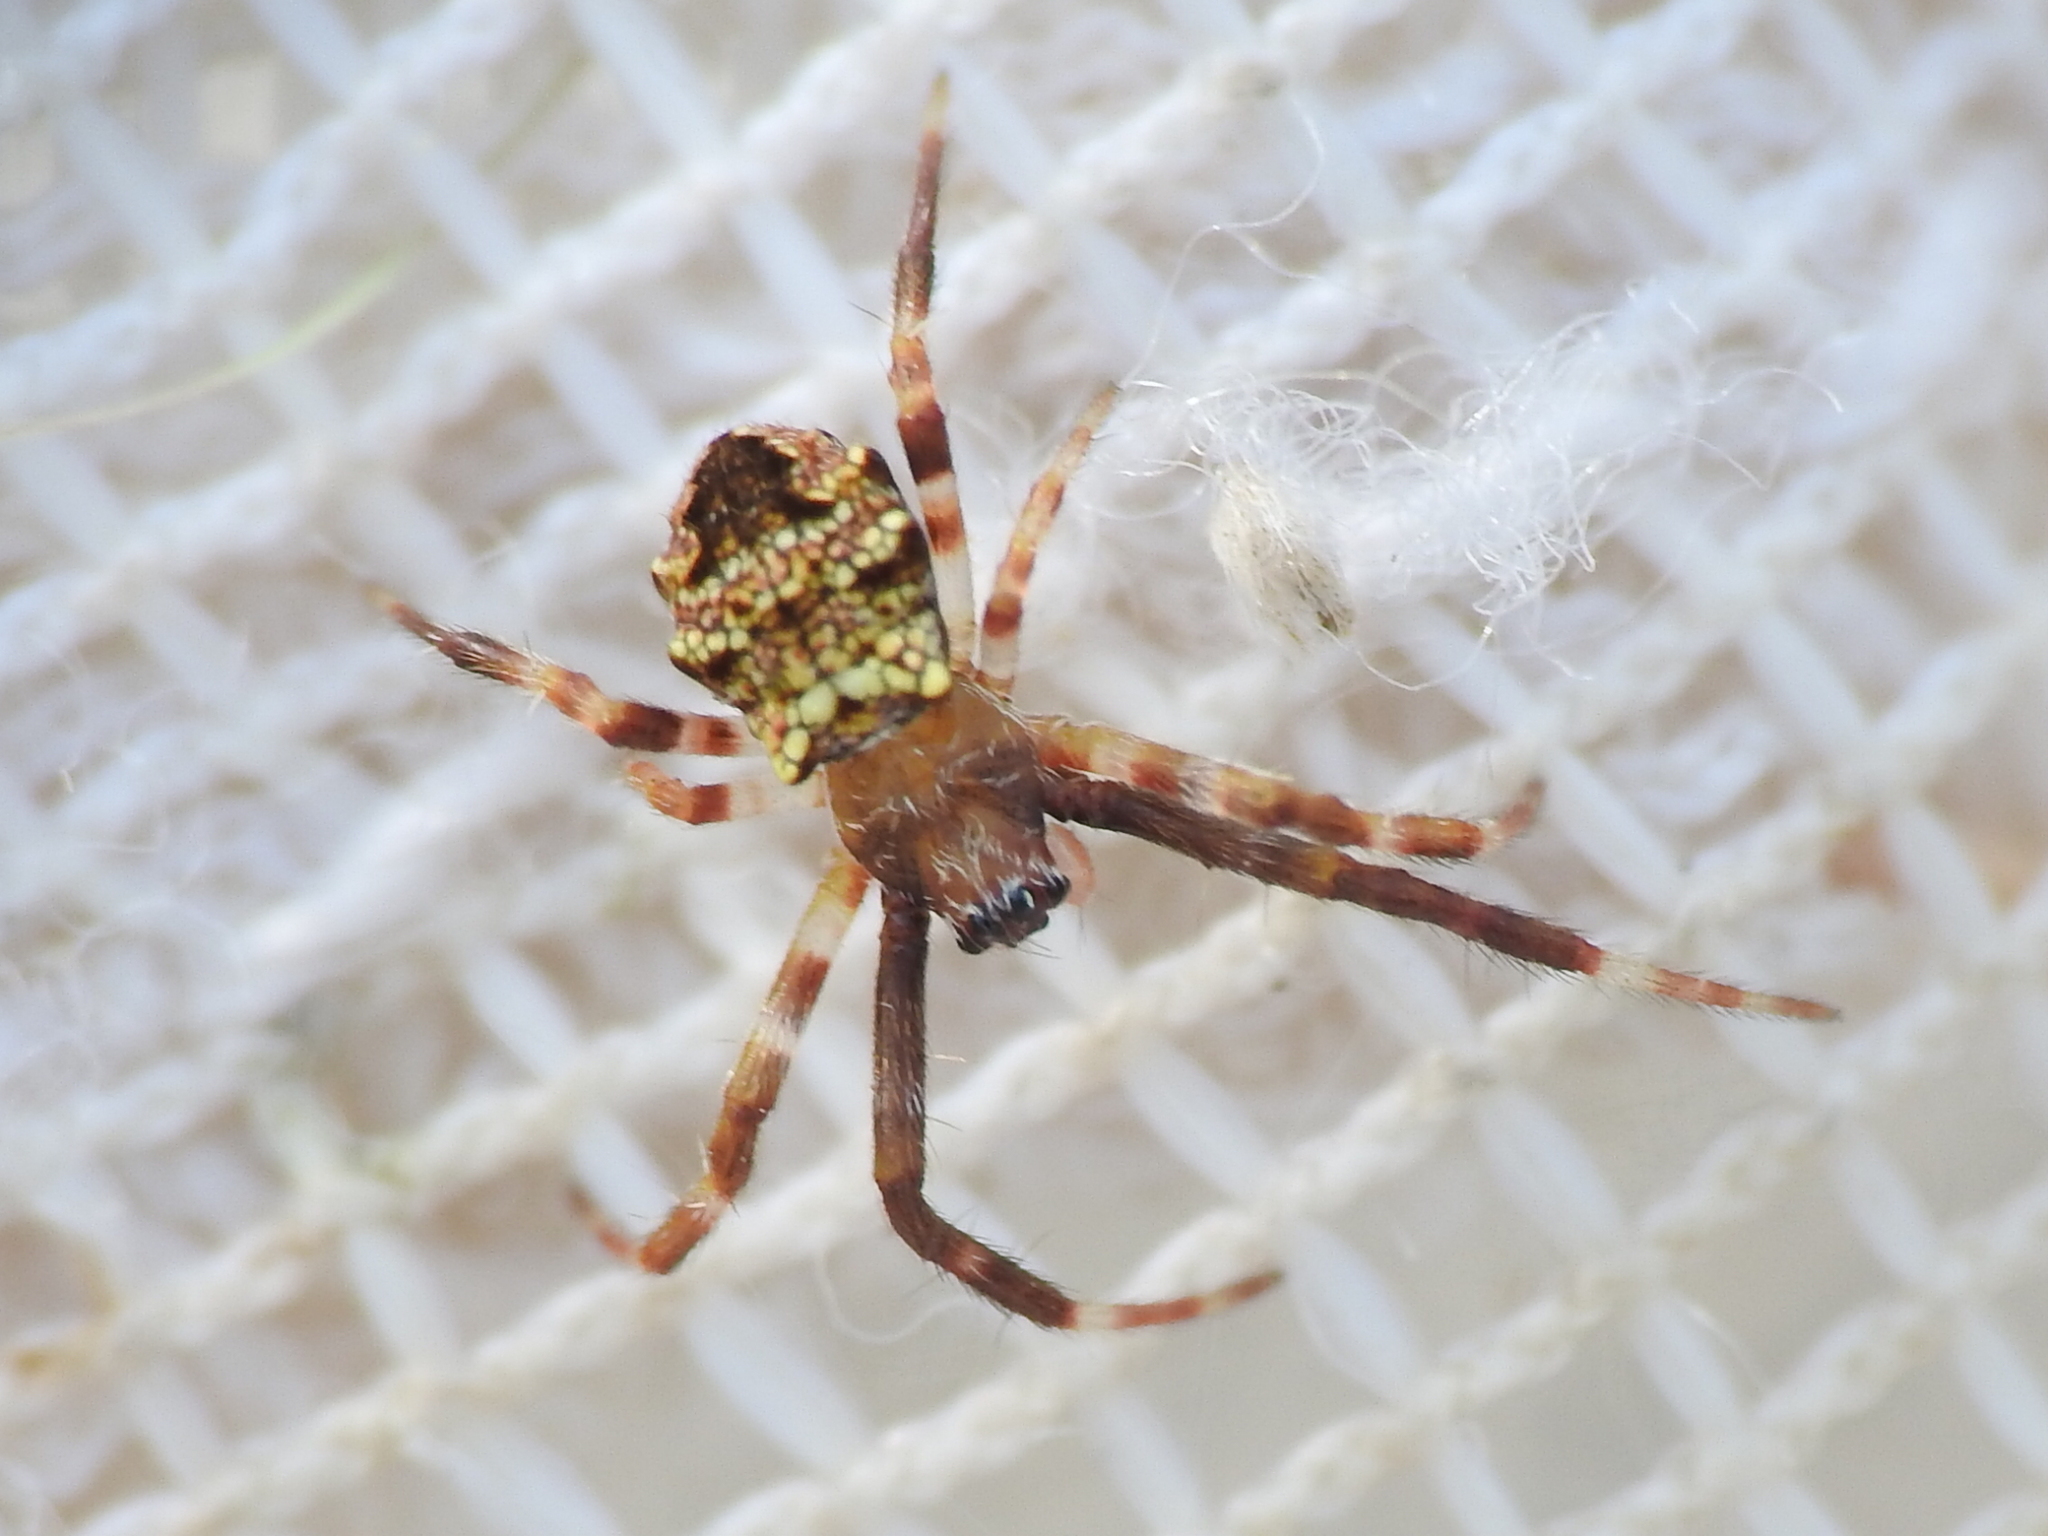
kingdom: Animalia
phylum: Arthropoda
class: Arachnida
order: Araneae
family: Araneidae
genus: Gea
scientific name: Gea heptagon
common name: Orb weavers
